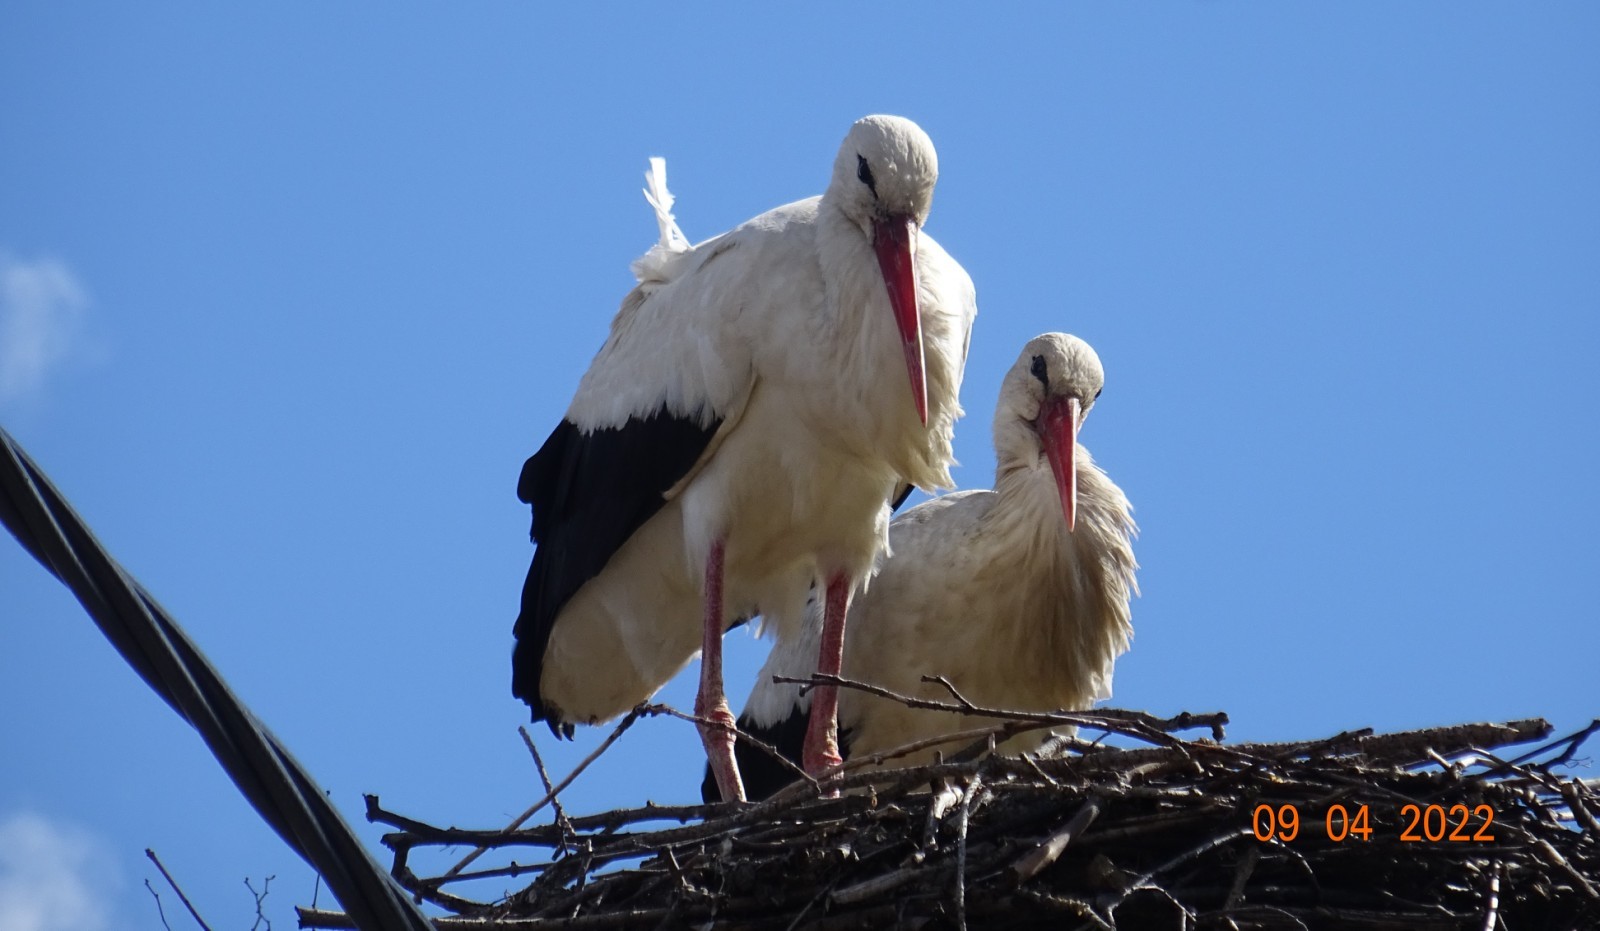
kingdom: Animalia
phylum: Chordata
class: Aves
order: Ciconiiformes
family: Ciconiidae
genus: Ciconia
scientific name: Ciconia ciconia
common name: White stork
